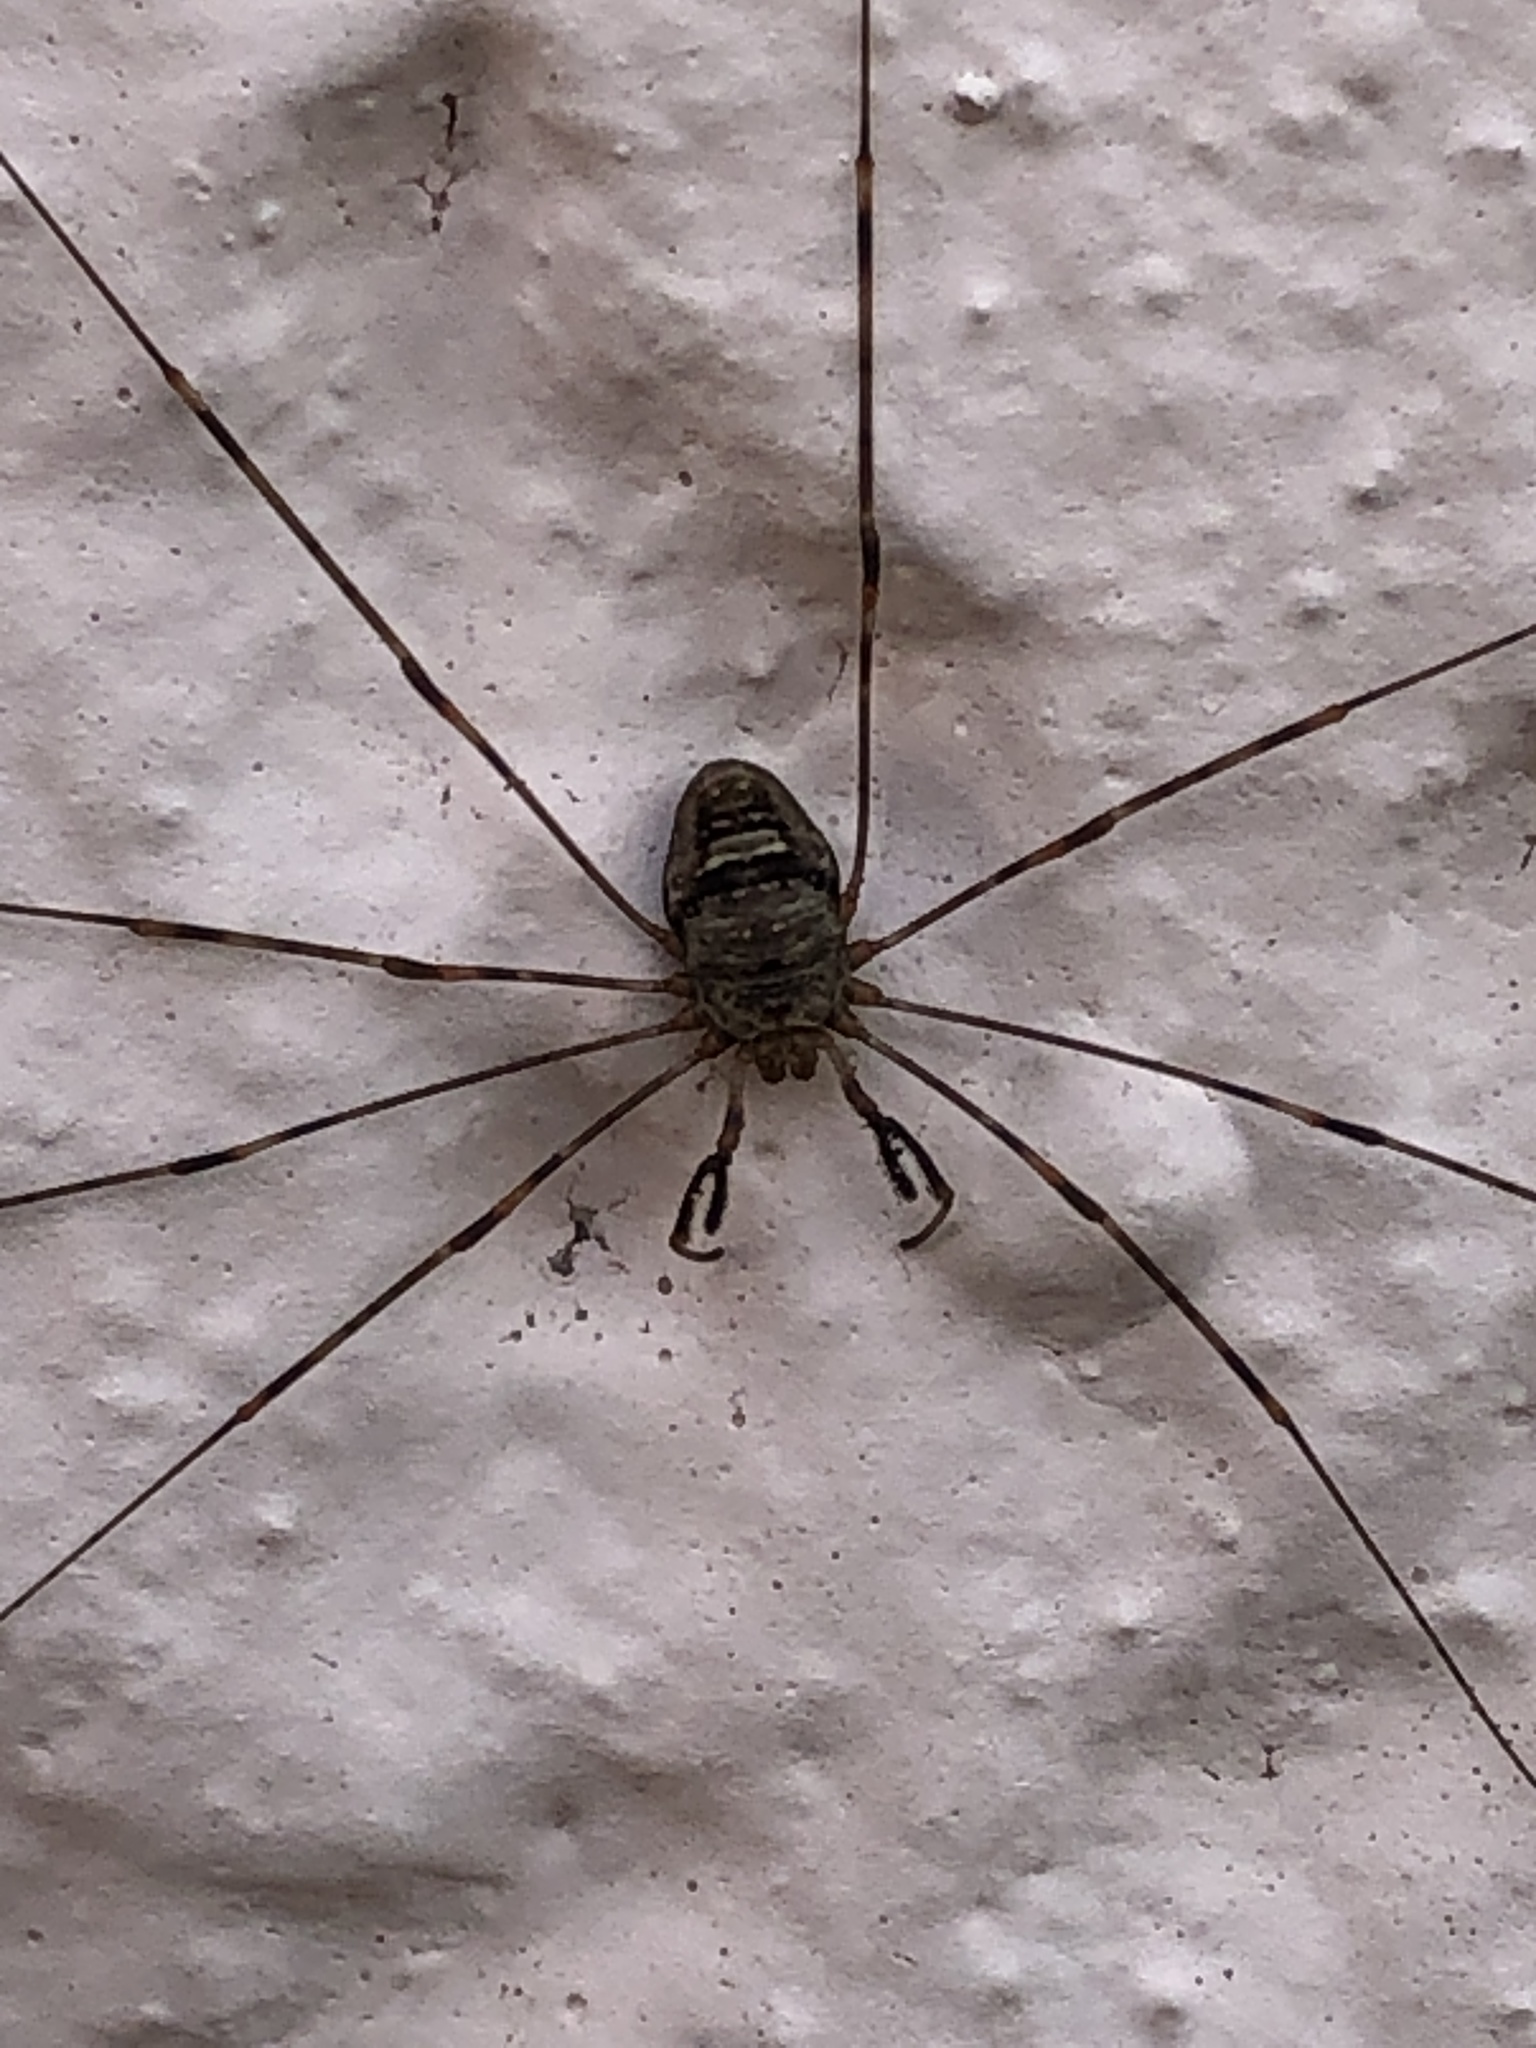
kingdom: Animalia
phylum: Arthropoda
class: Arachnida
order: Opiliones
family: Phalangiidae
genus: Dicranopalpus
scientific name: Dicranopalpus ramosus
